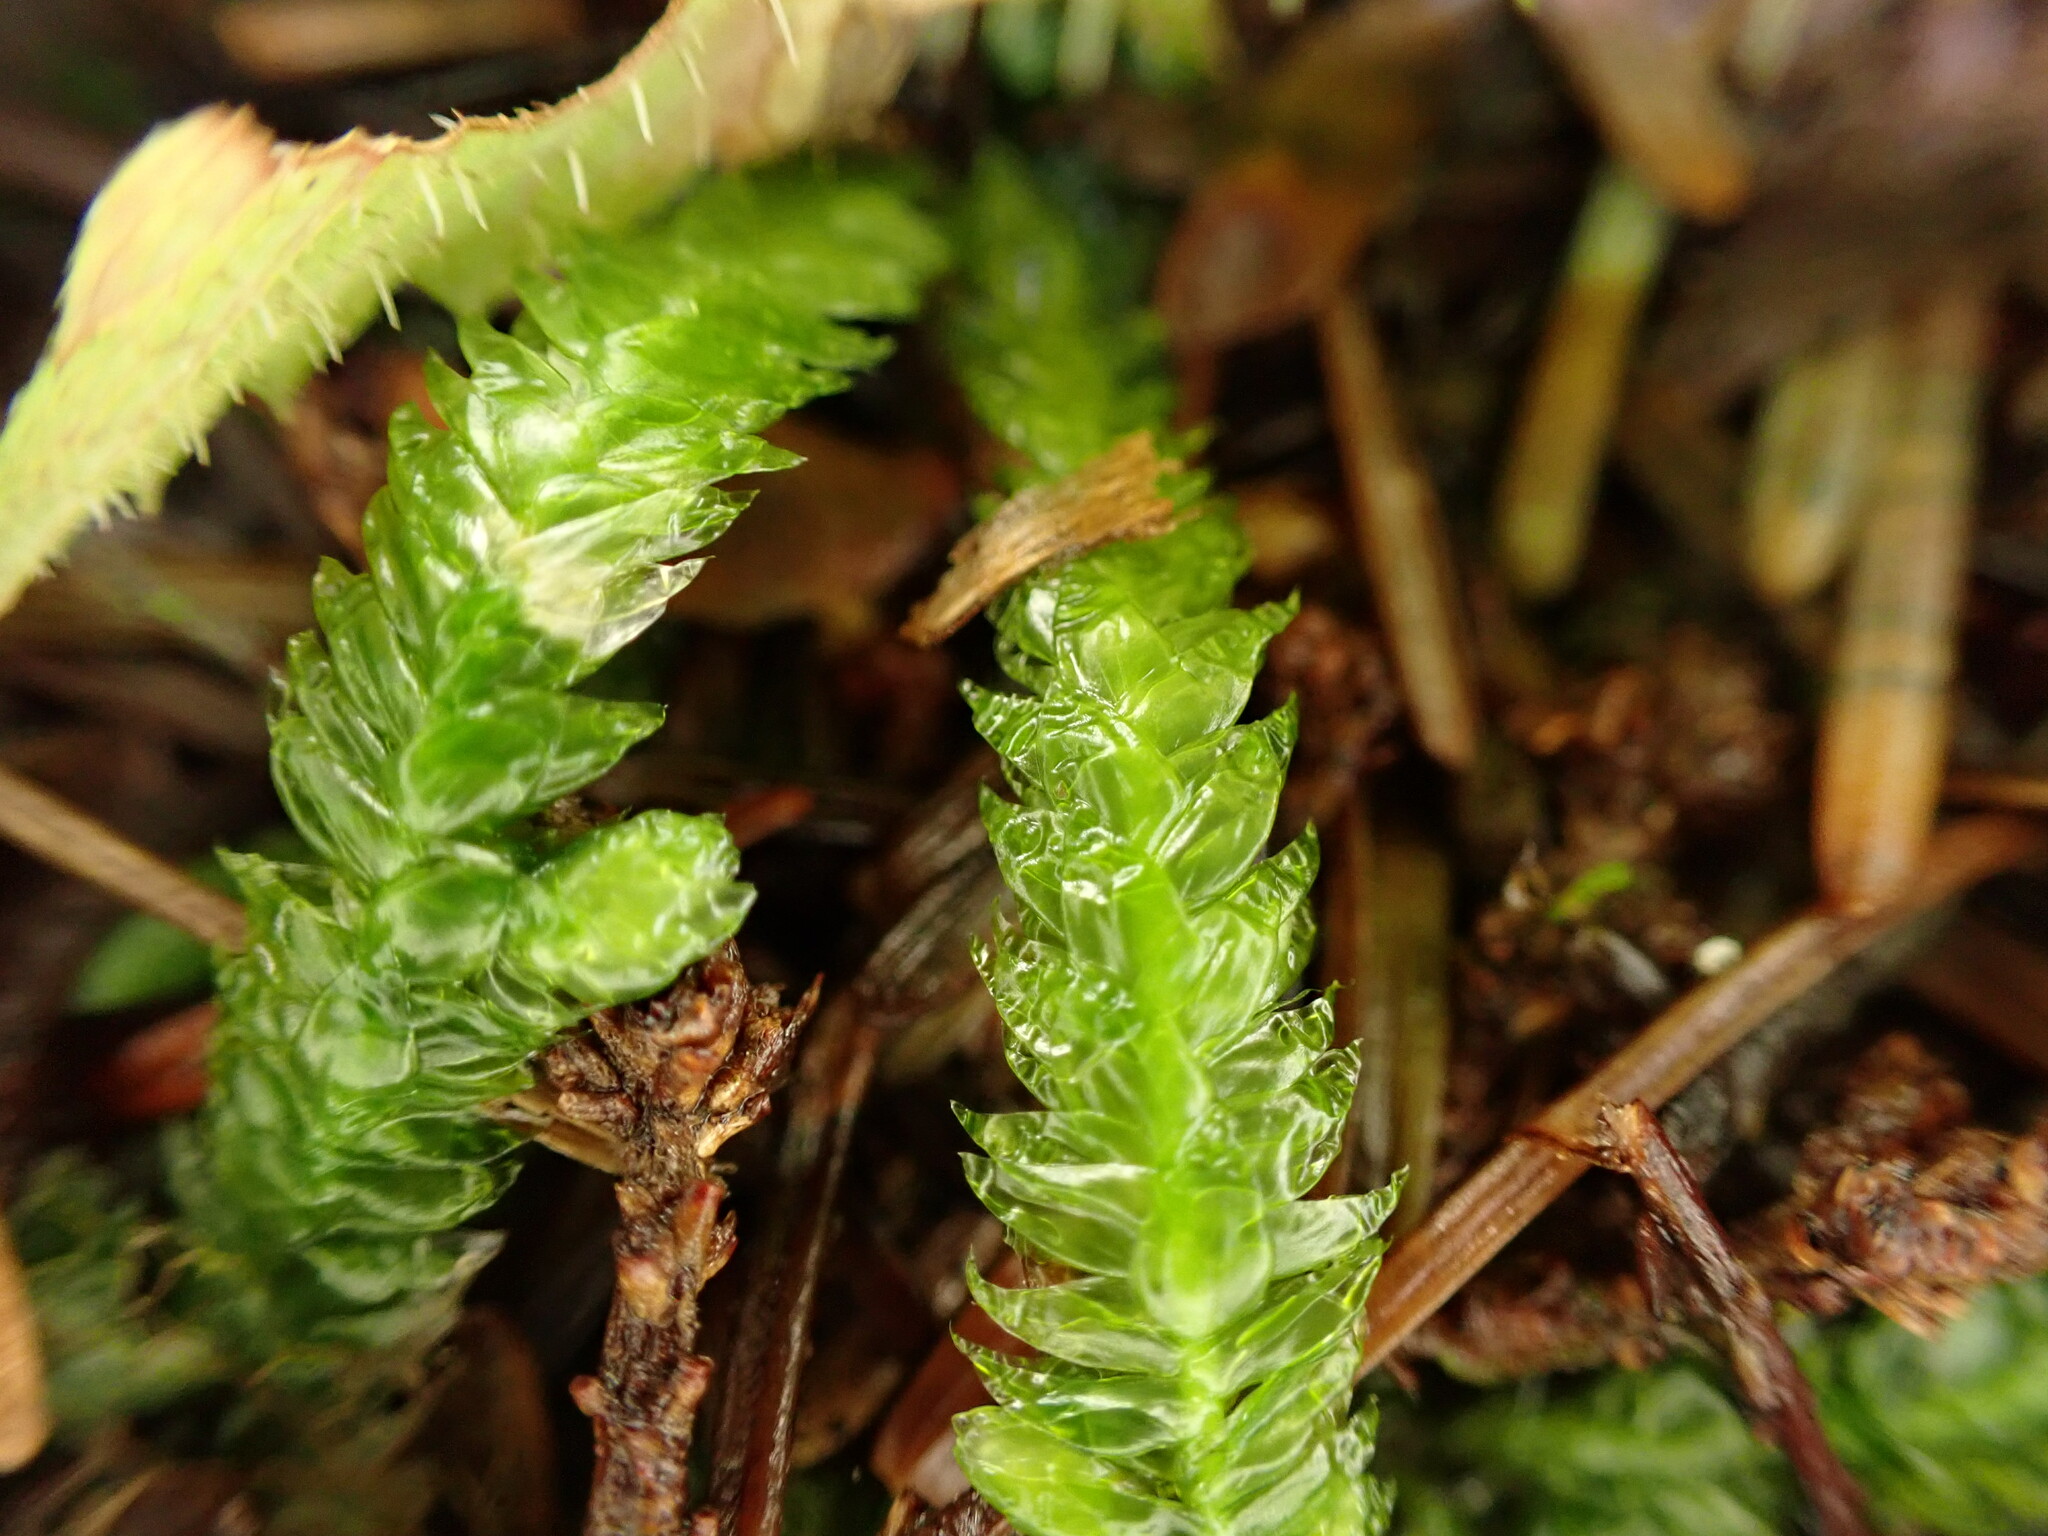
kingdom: Plantae
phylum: Bryophyta
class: Bryopsida
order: Hypnales
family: Plagiotheciaceae
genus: Plagiothecium
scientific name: Plagiothecium undulatum
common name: Waved silk-moss
